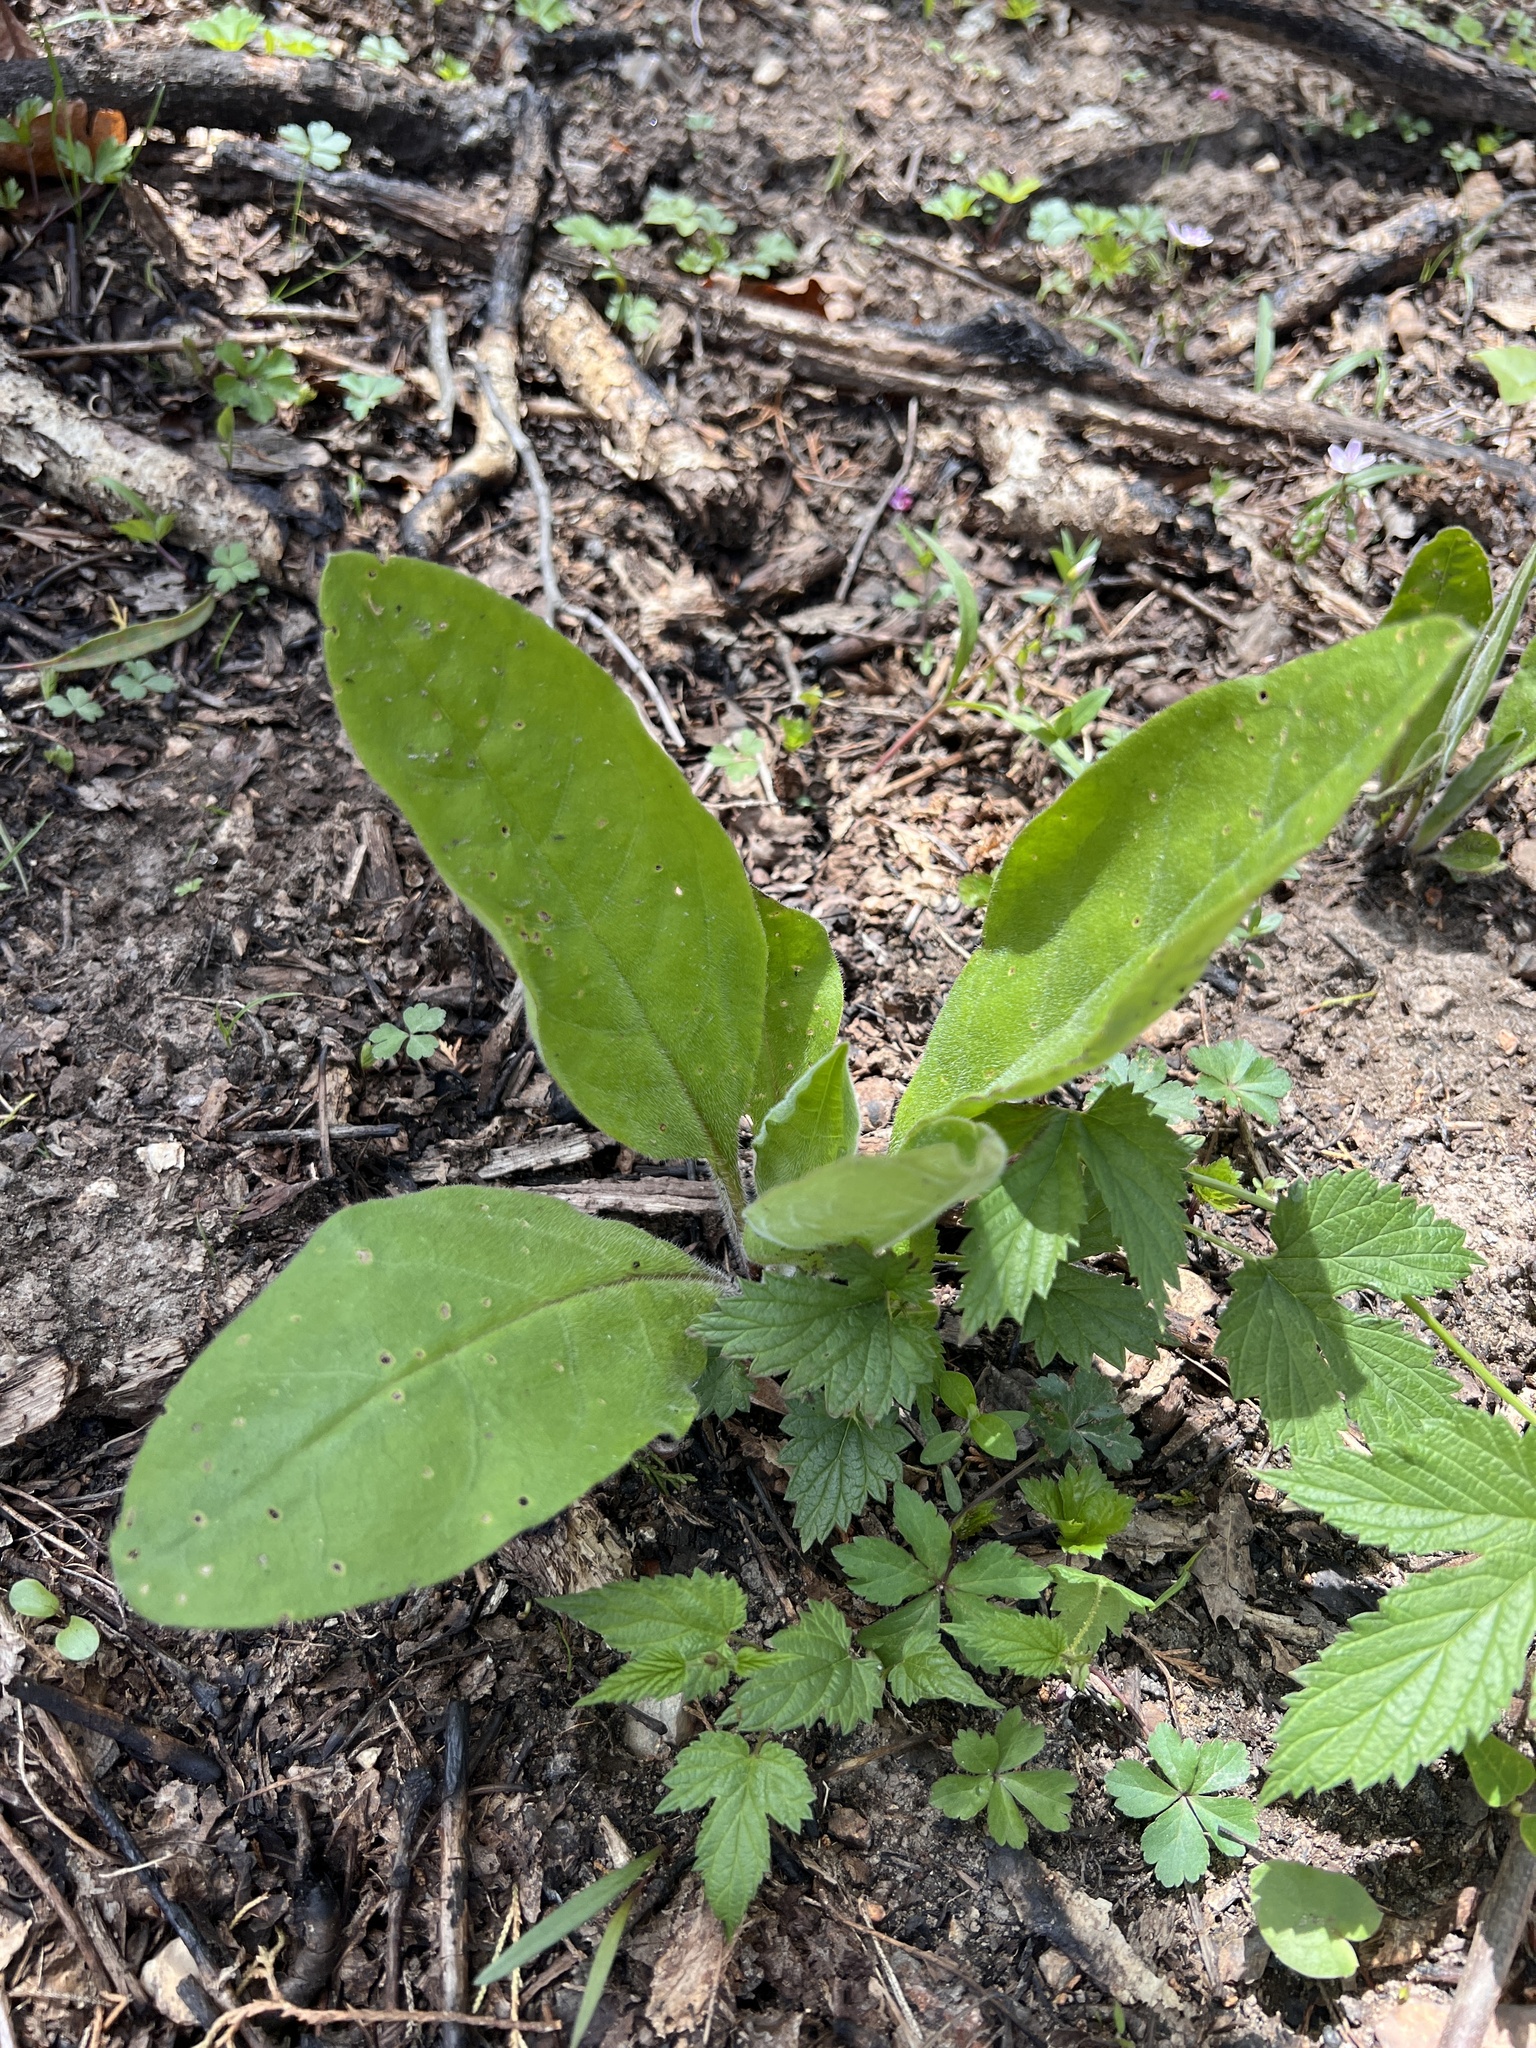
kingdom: Plantae
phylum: Tracheophyta
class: Magnoliopsida
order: Boraginales
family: Boraginaceae
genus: Andersonglossum
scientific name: Andersonglossum virginianum
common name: Wild comfrey
